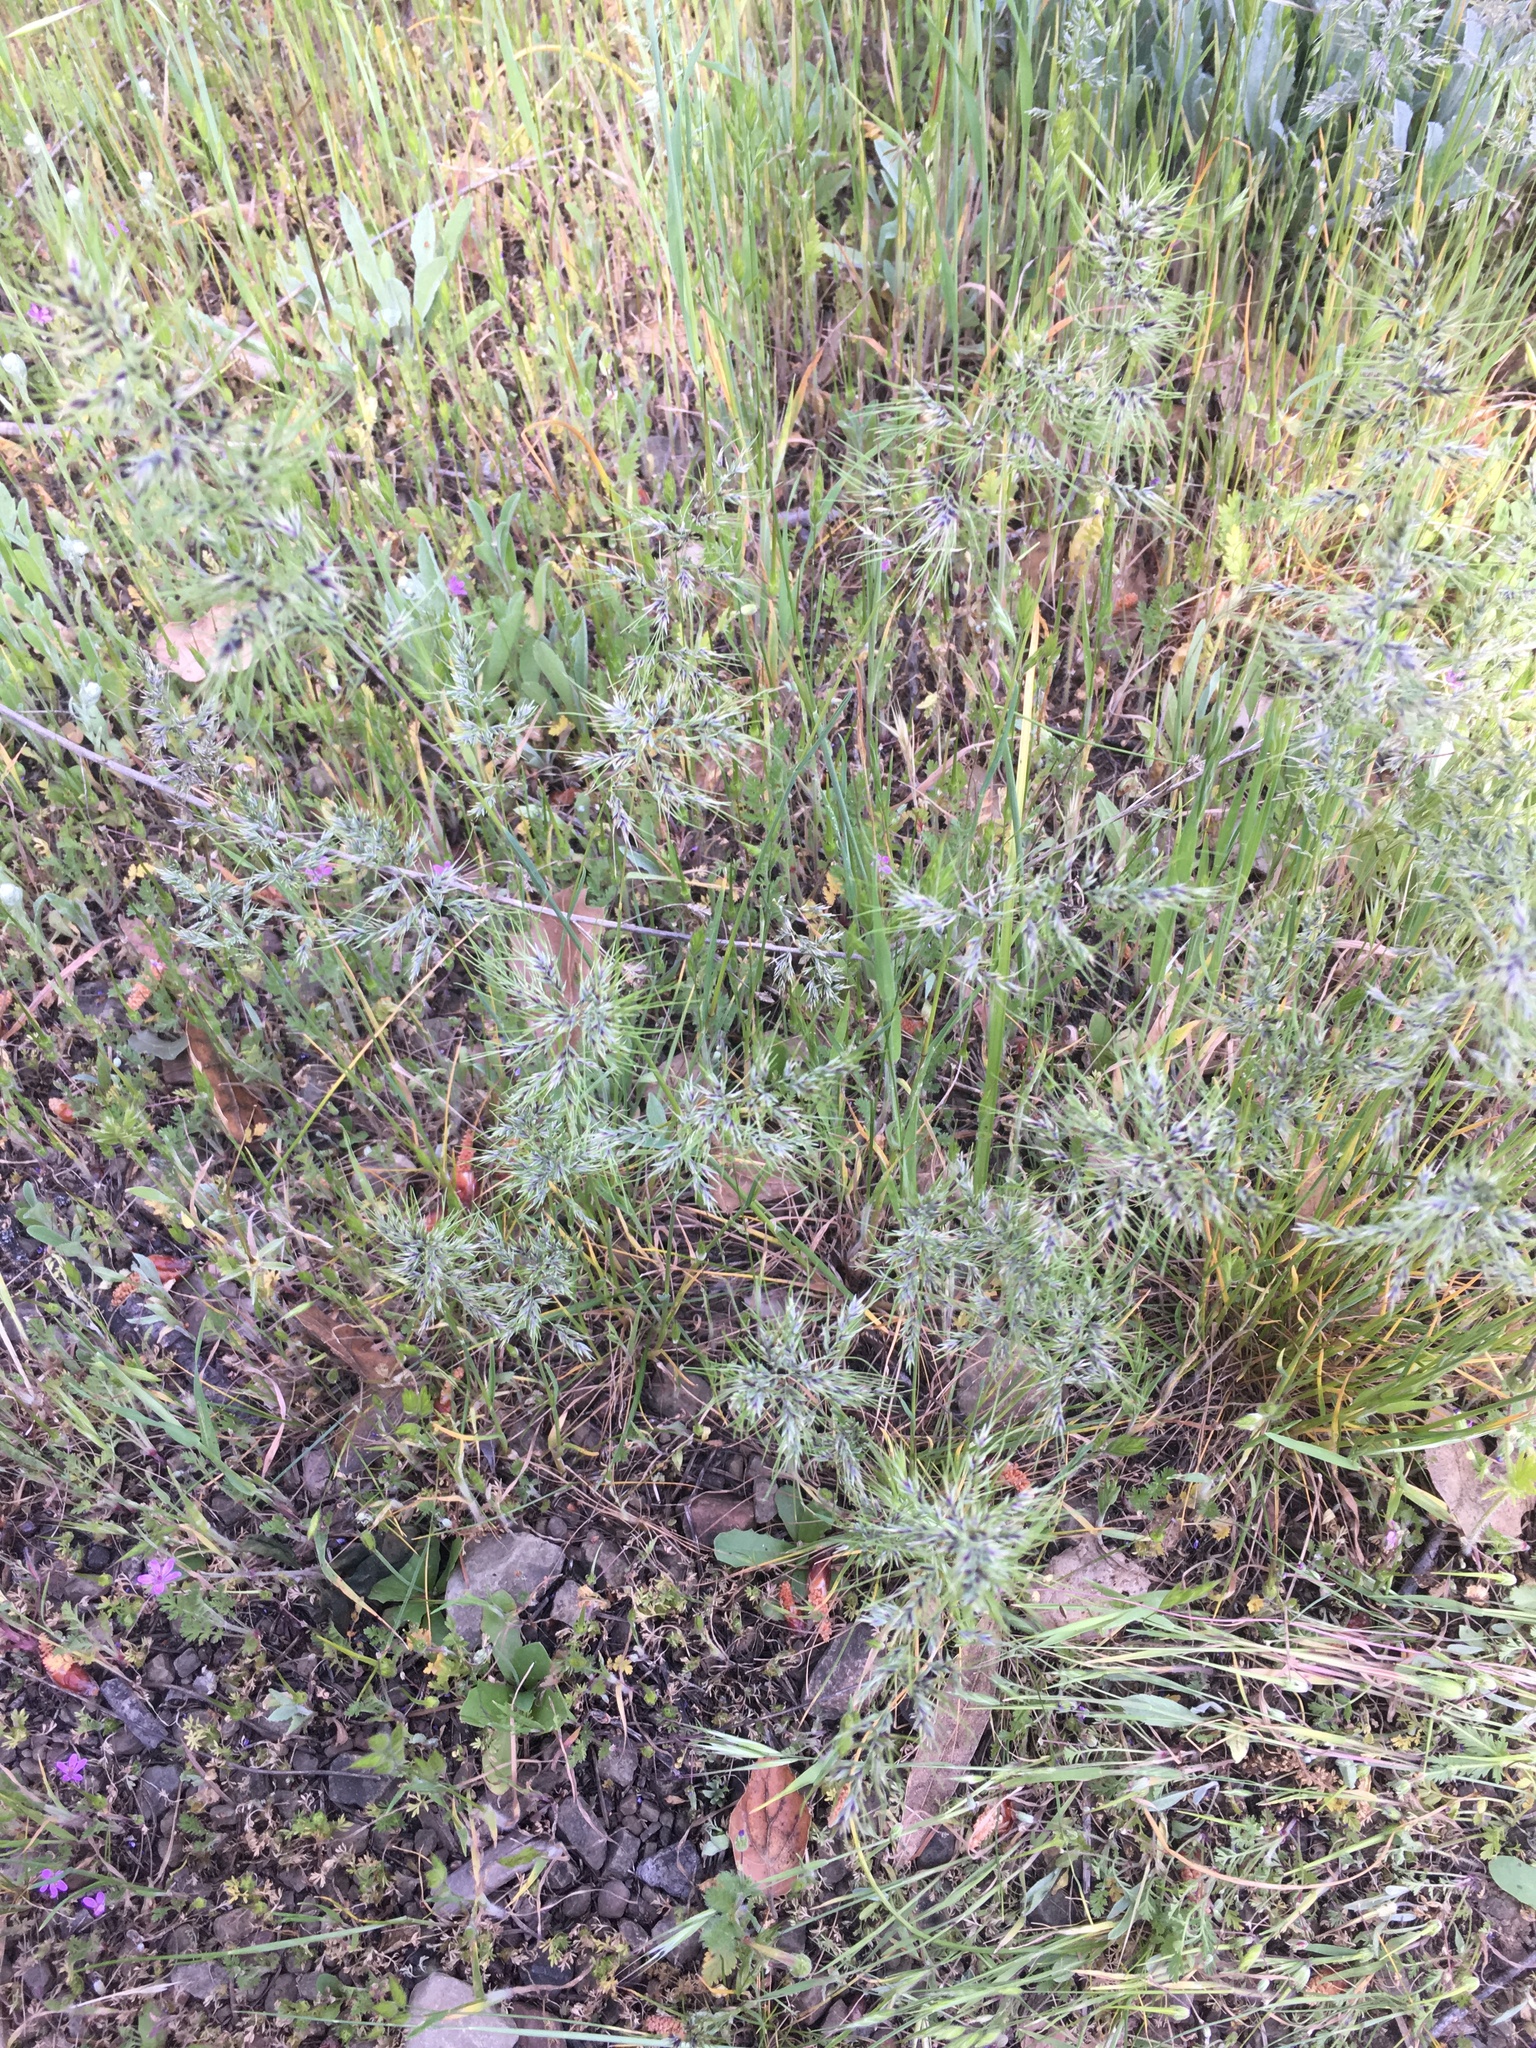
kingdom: Plantae
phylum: Tracheophyta
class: Liliopsida
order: Poales
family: Poaceae
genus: Poa
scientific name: Poa bulbosa
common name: Bulbous bluegrass
